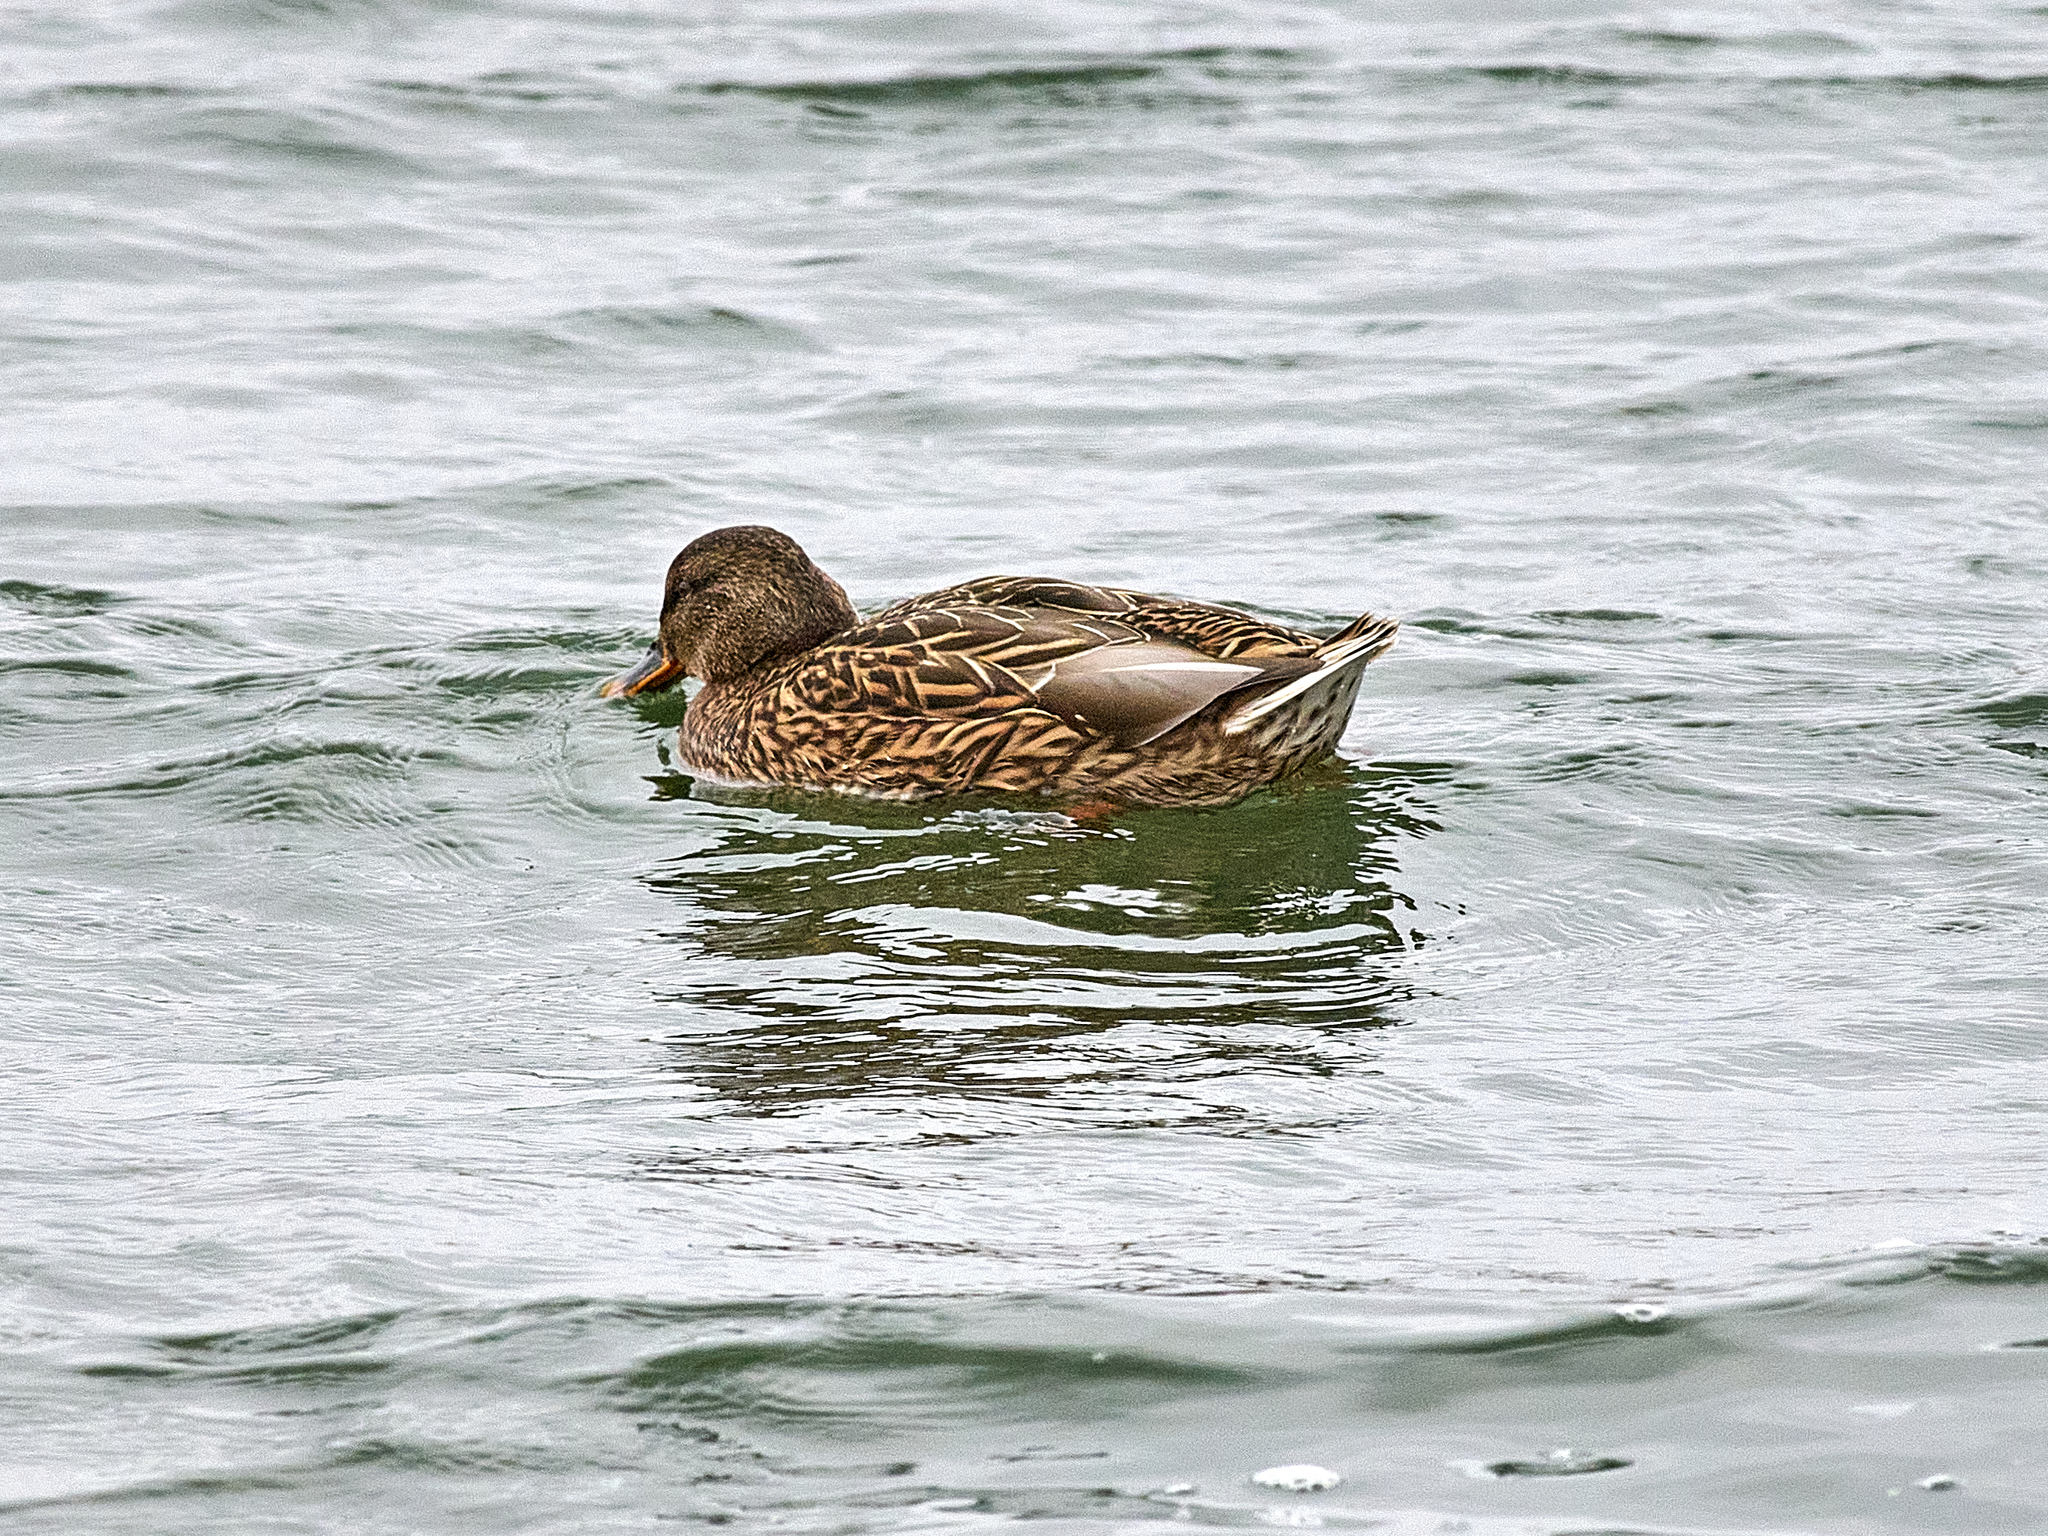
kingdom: Animalia
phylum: Chordata
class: Aves
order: Anseriformes
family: Anatidae
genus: Anas
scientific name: Anas platyrhynchos
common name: Mallard
